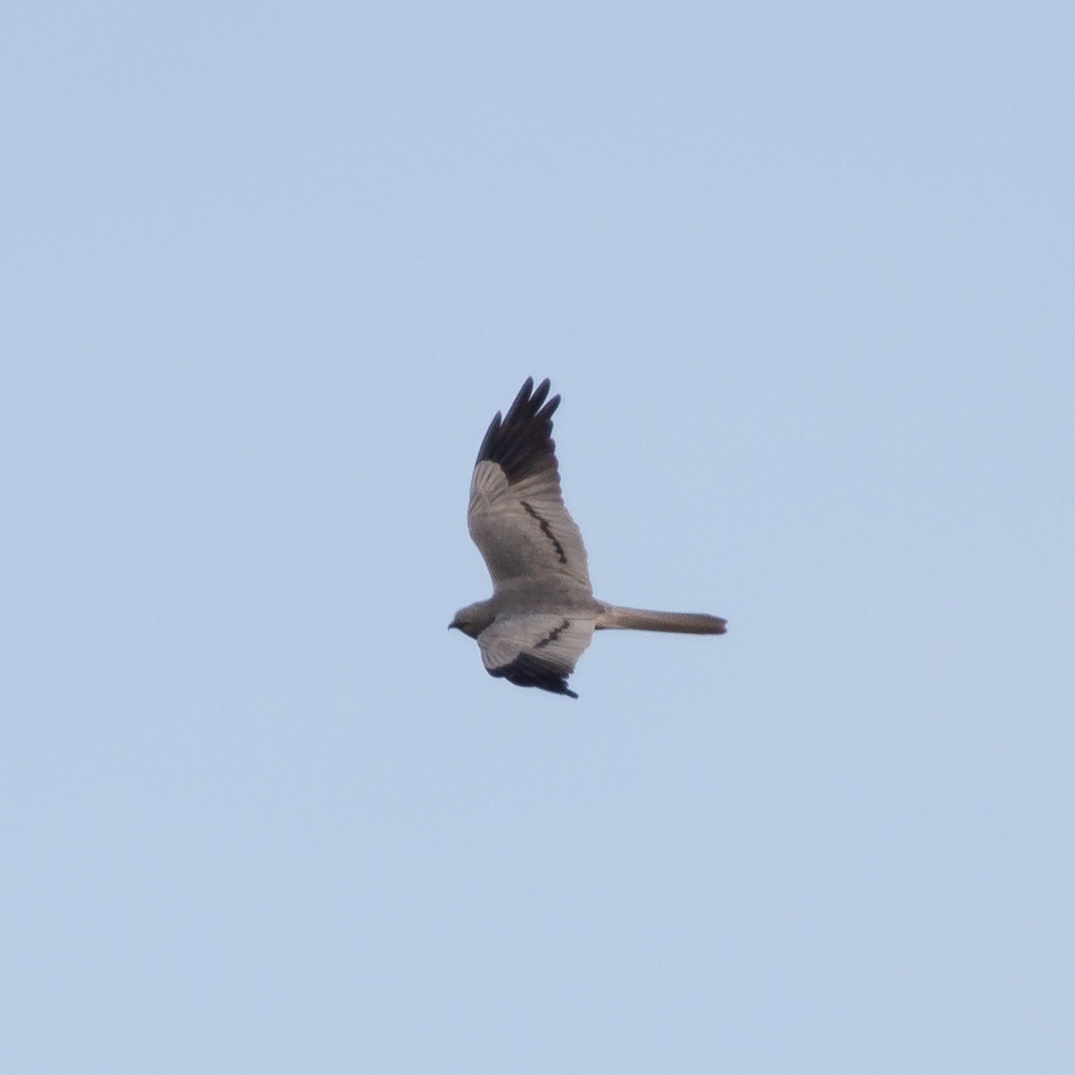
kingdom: Animalia
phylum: Chordata
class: Aves
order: Accipitriformes
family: Accipitridae
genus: Circus
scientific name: Circus pygargus
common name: Montagu's harrier
